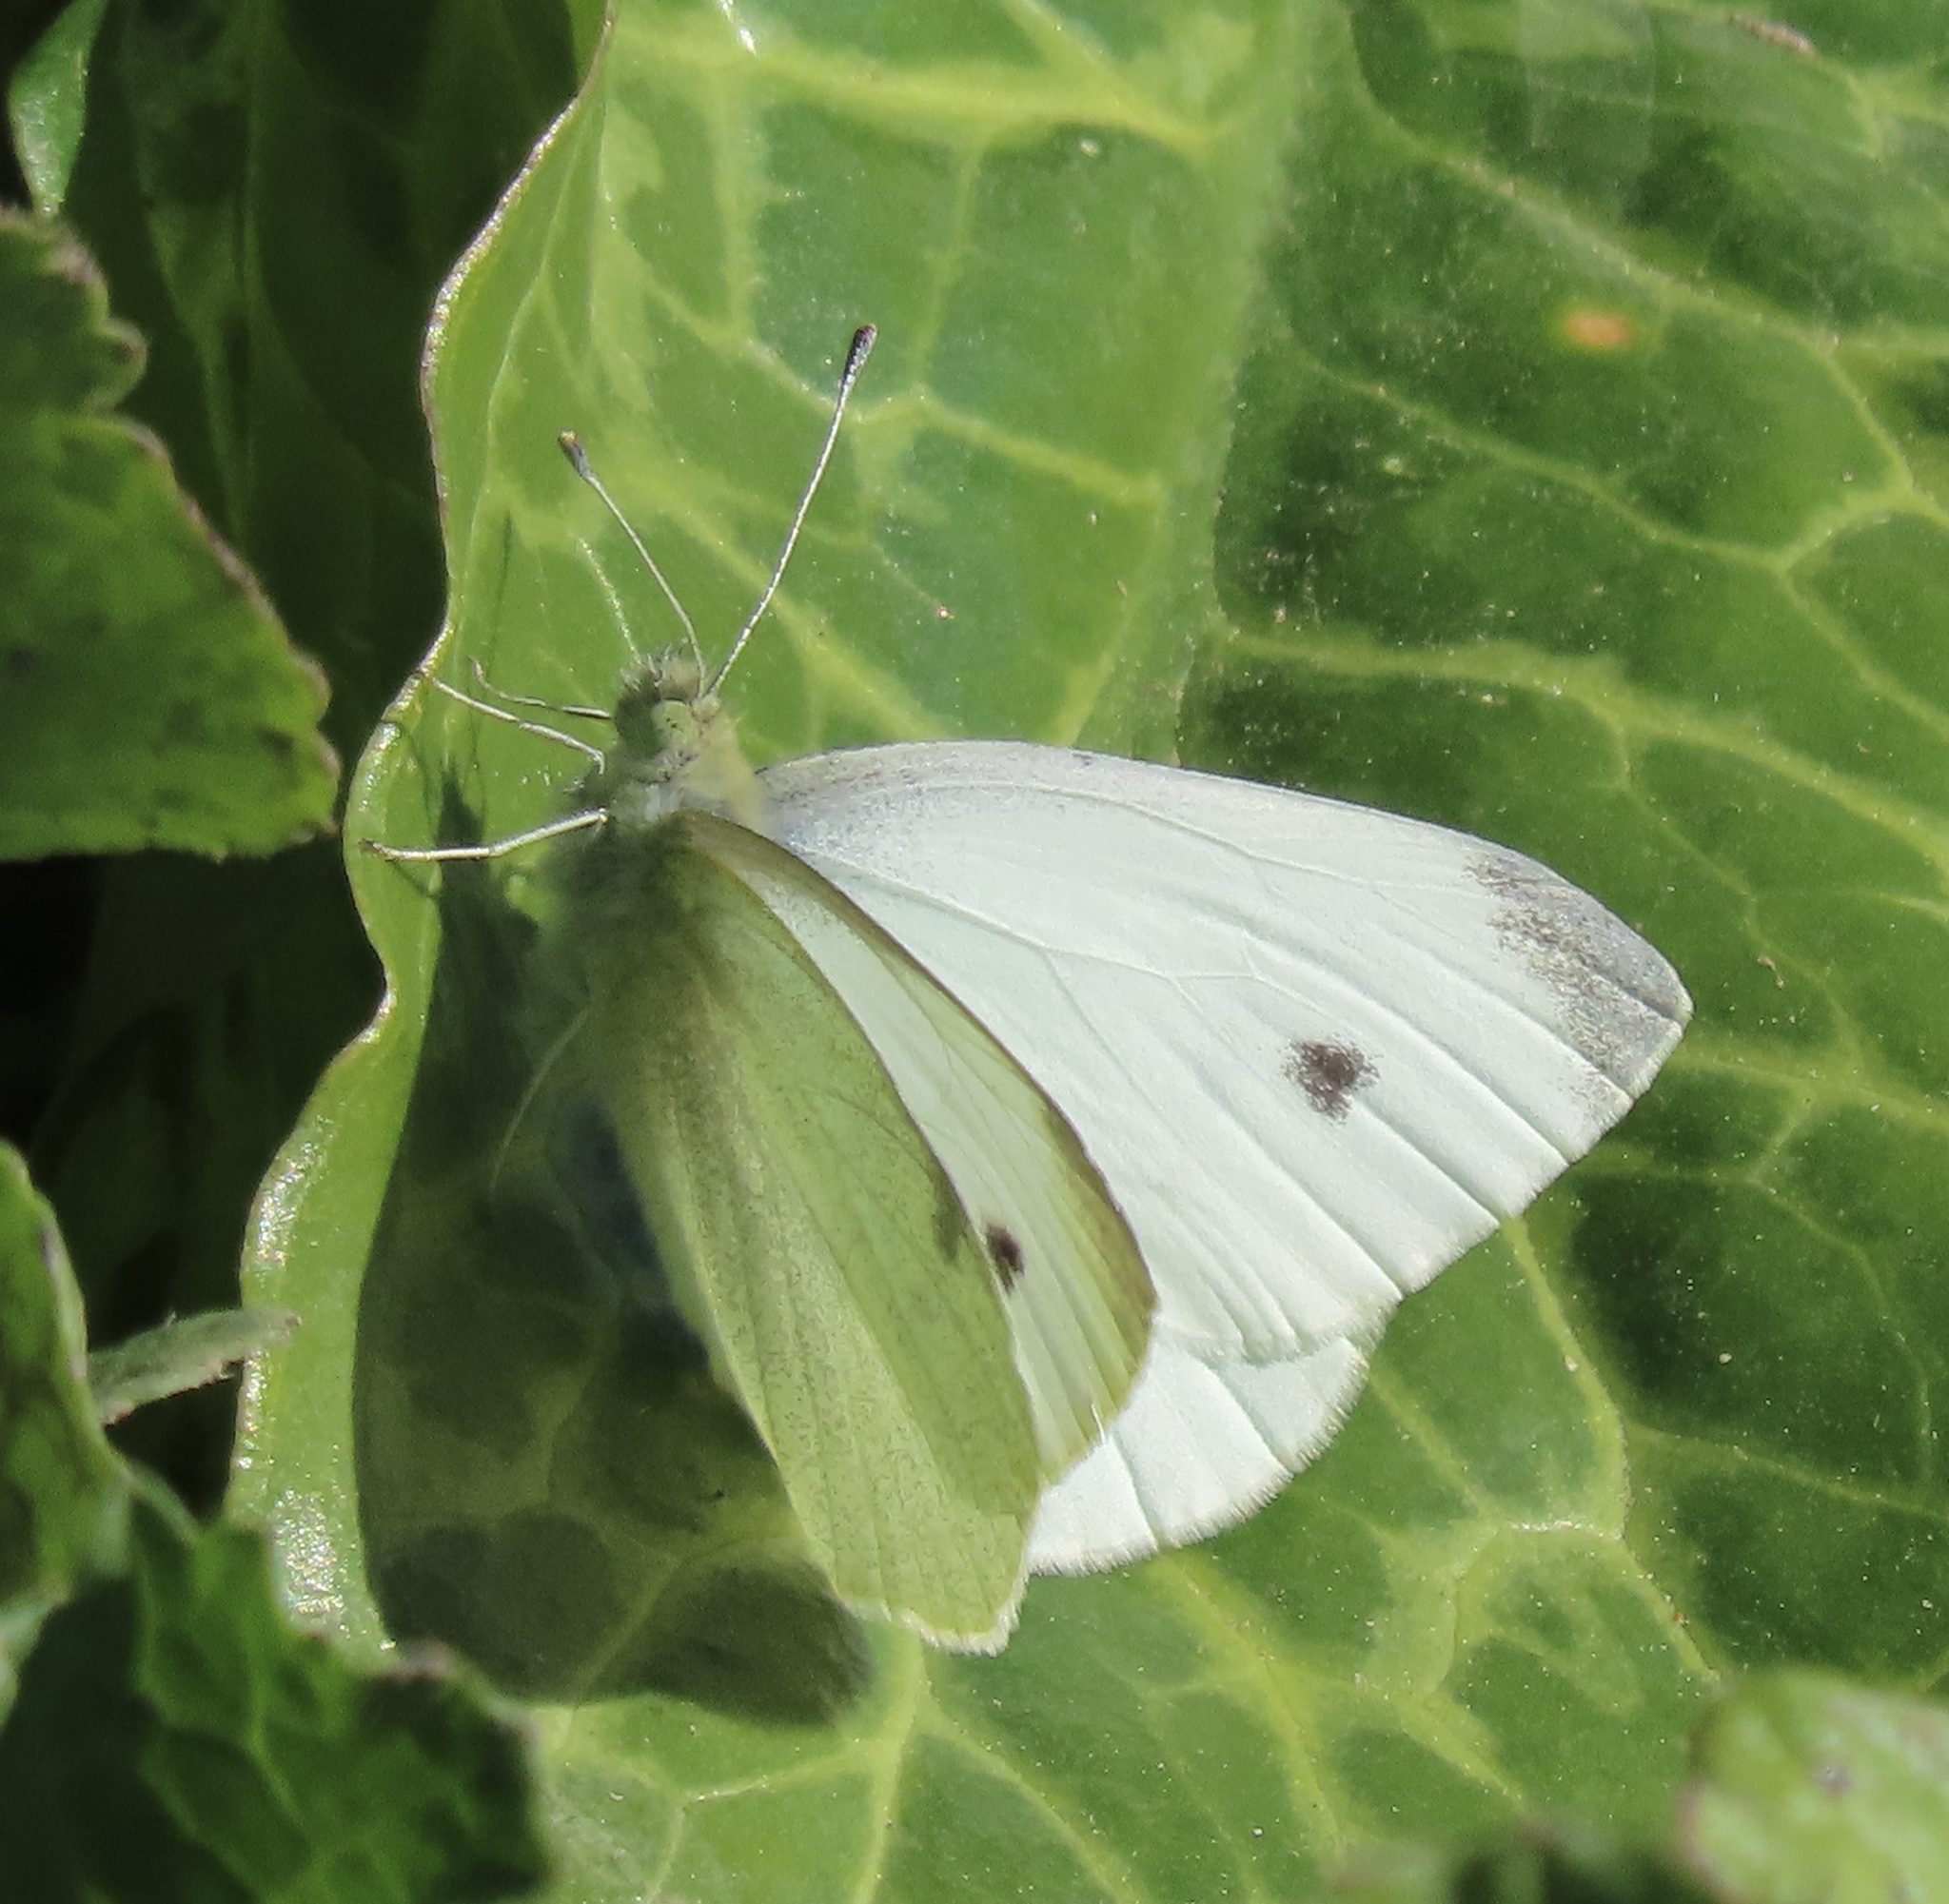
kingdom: Animalia
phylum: Arthropoda
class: Insecta
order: Lepidoptera
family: Pieridae
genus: Pieris
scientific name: Pieris rapae
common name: Small white
